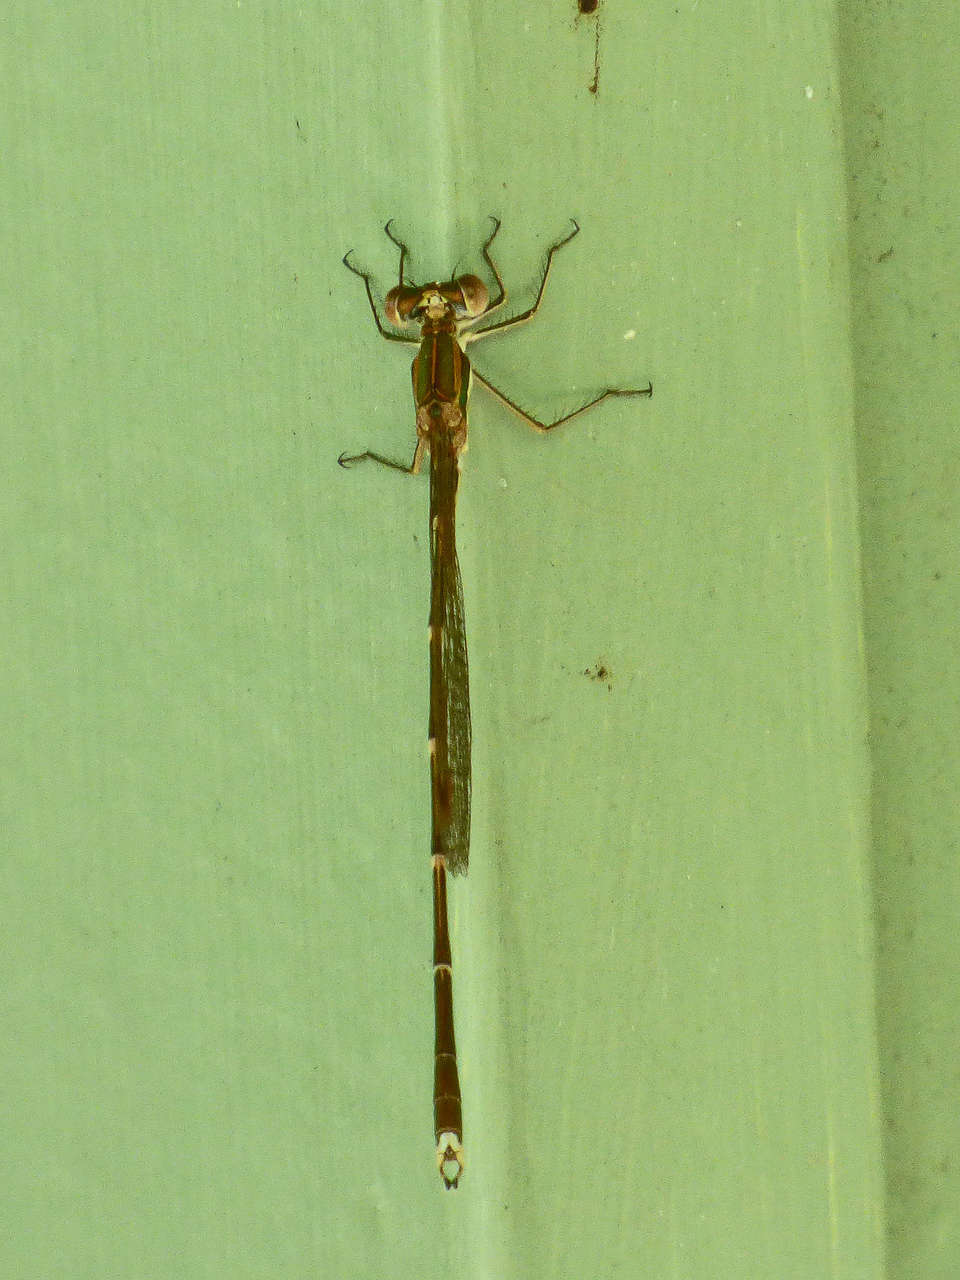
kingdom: Animalia
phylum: Arthropoda
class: Insecta
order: Odonata
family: Lestidae
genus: Austrolestes
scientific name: Austrolestes analis
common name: Slender ringtail
